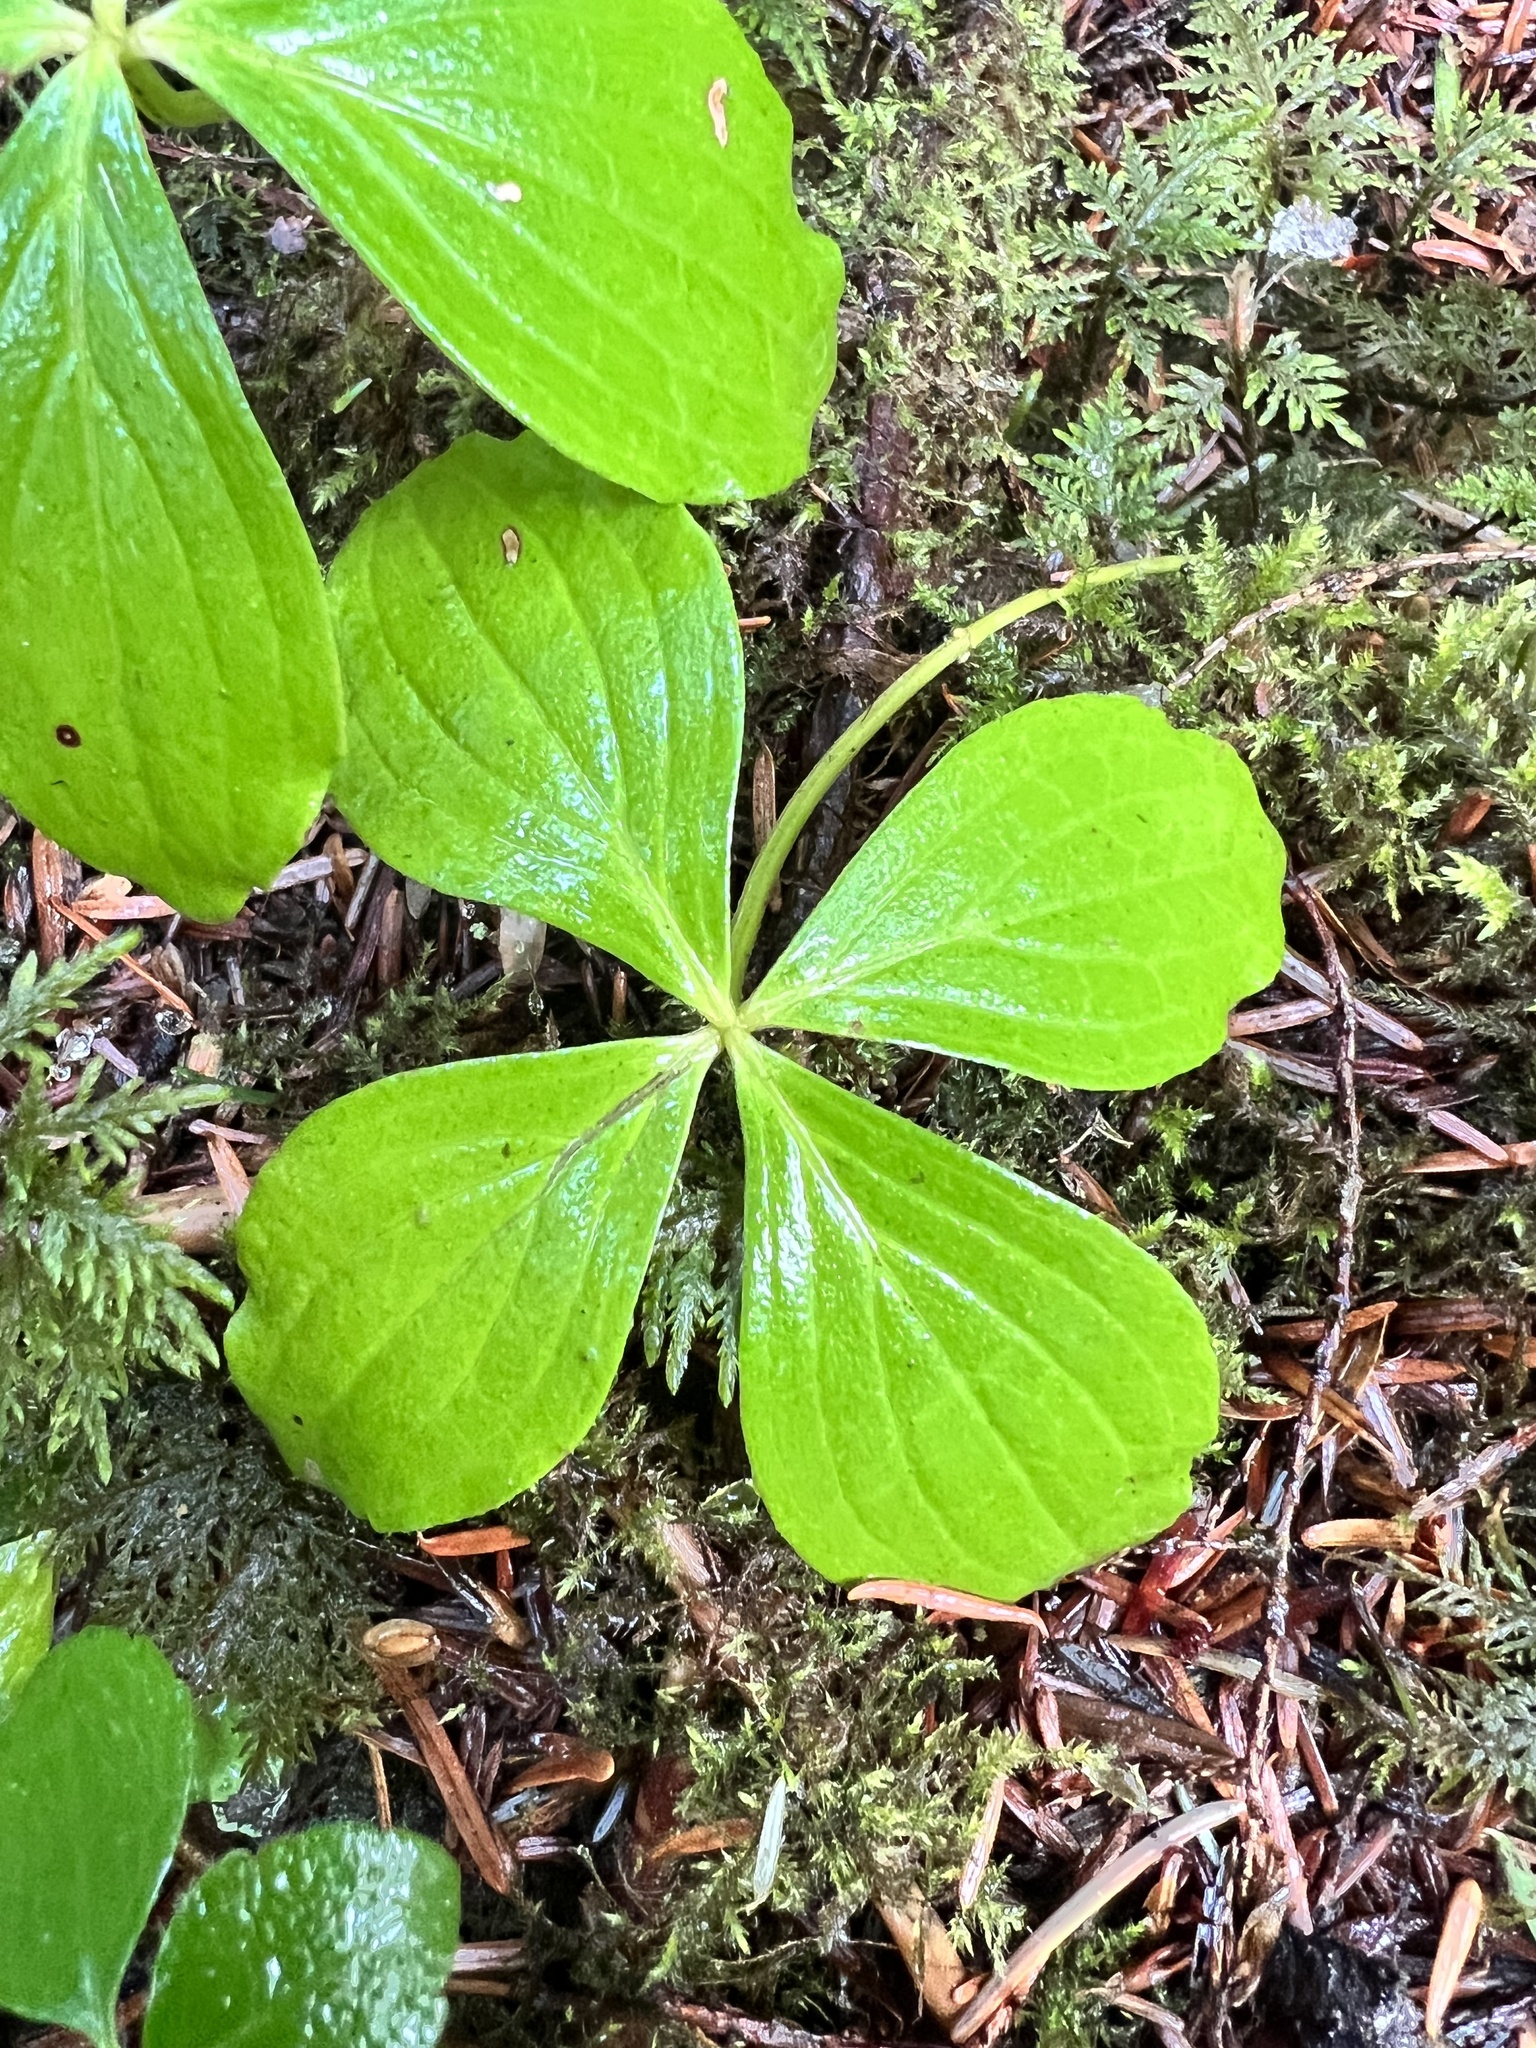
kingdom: Plantae
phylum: Tracheophyta
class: Magnoliopsida
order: Cornales
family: Cornaceae
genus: Cornus
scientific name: Cornus unalaschkensis
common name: Alaska bunchberry
